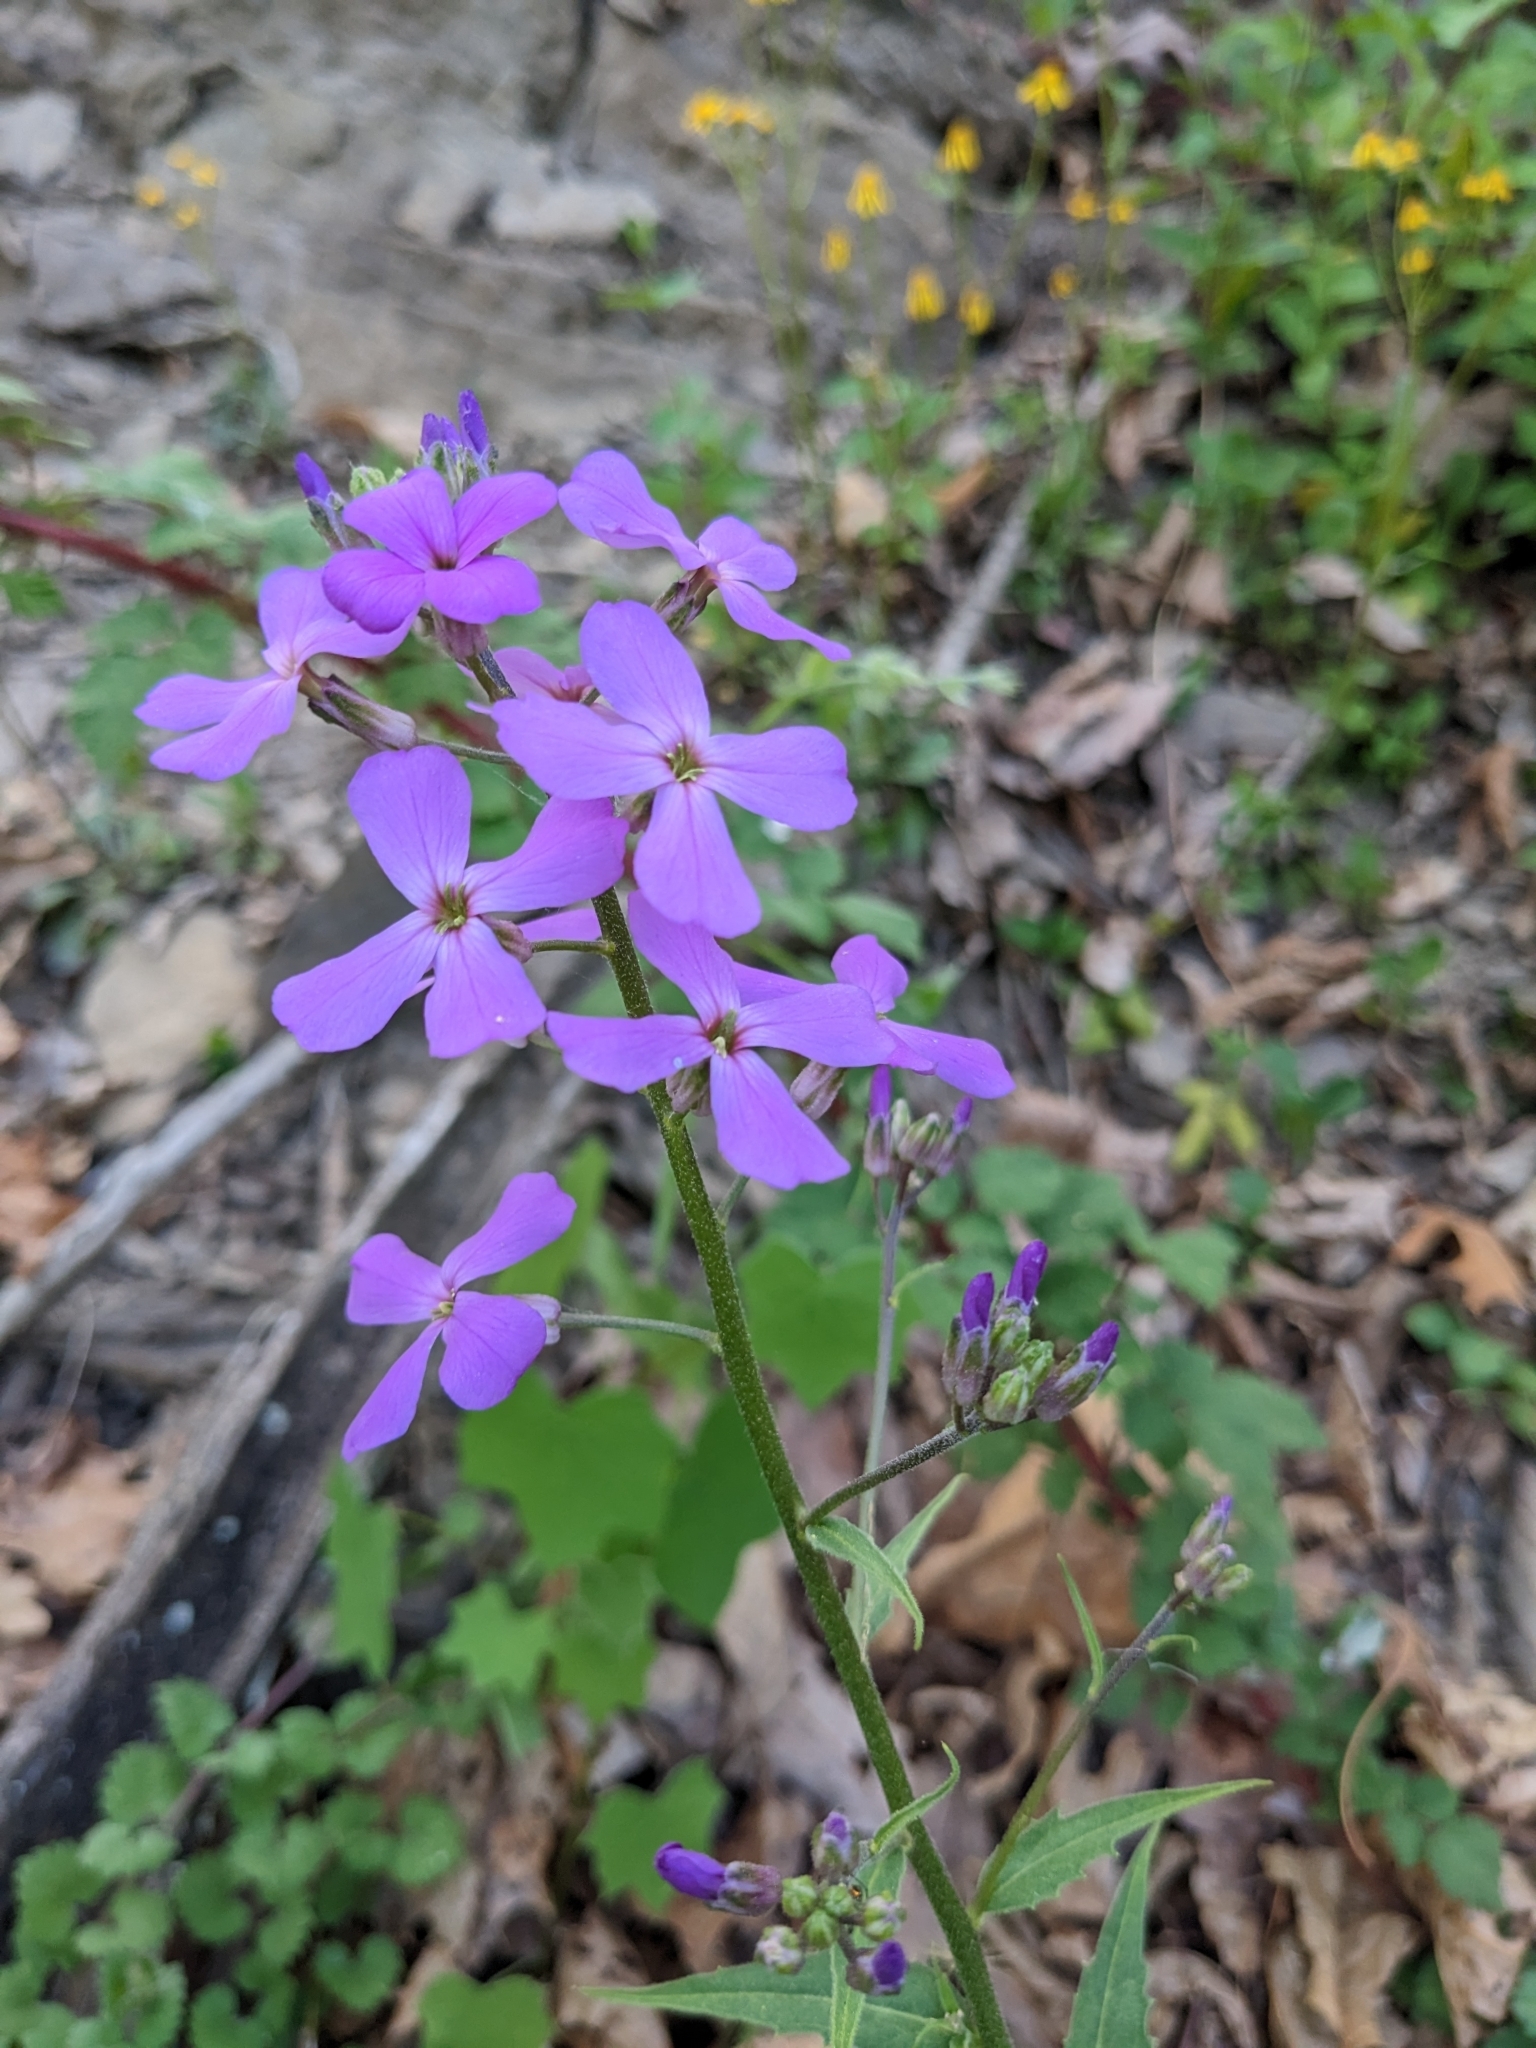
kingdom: Plantae
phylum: Tracheophyta
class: Magnoliopsida
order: Brassicales
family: Brassicaceae
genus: Hesperis
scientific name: Hesperis matronalis
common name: Dame's-violet
